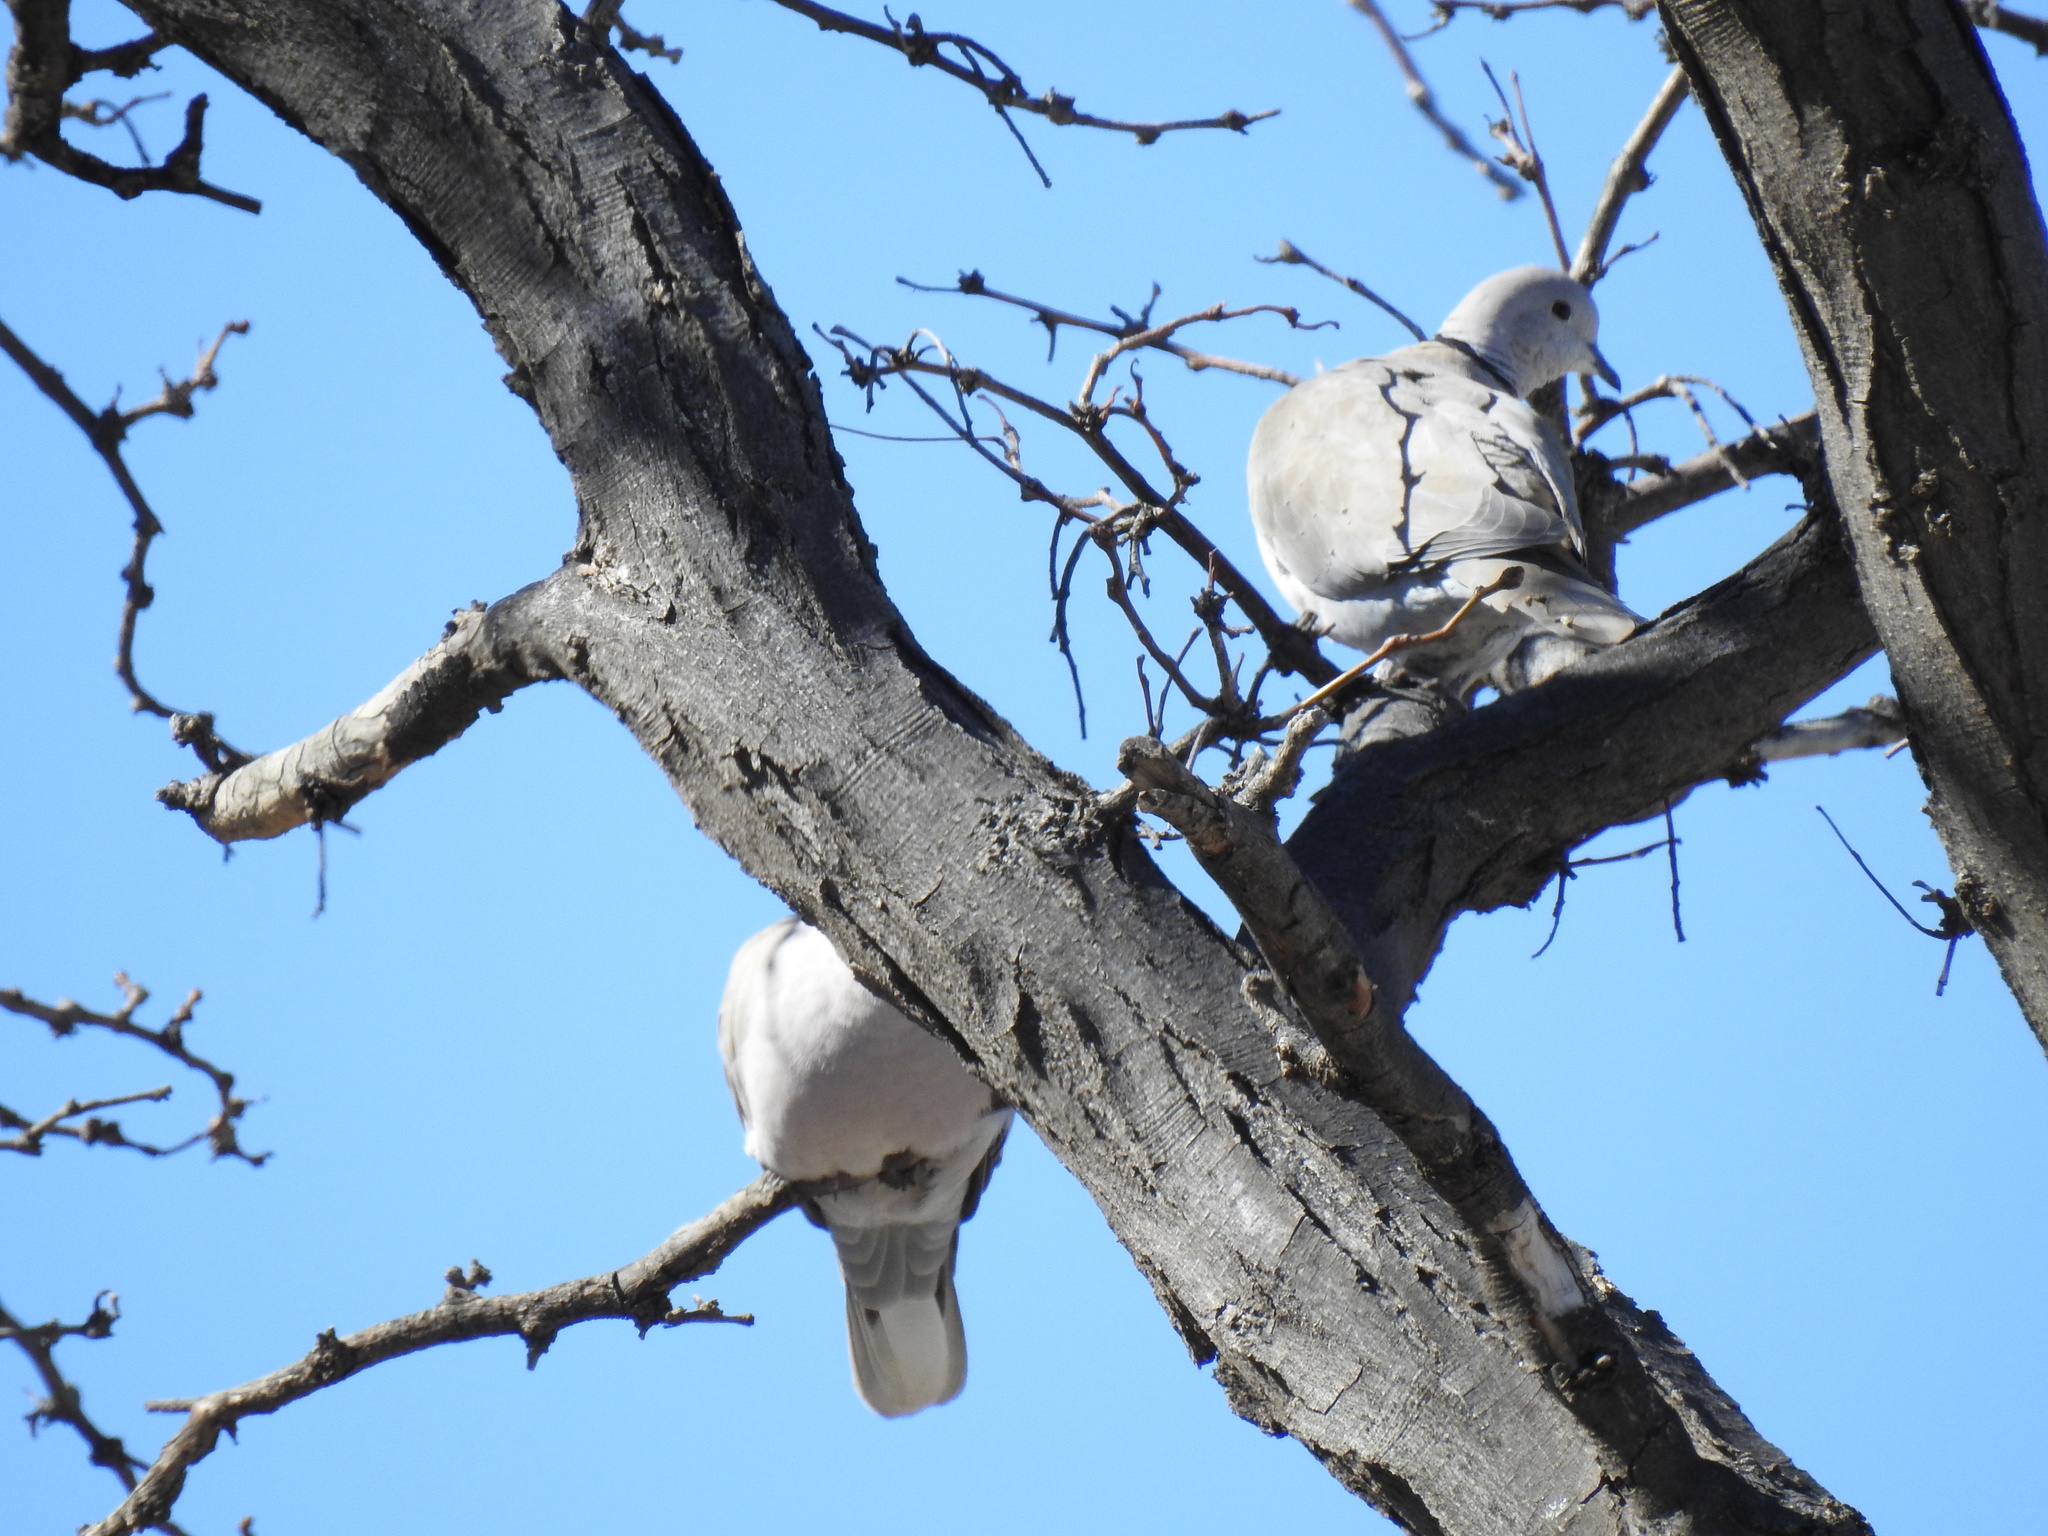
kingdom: Animalia
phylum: Chordata
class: Aves
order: Columbiformes
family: Columbidae
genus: Streptopelia
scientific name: Streptopelia decaocto
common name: Eurasian collared dove
